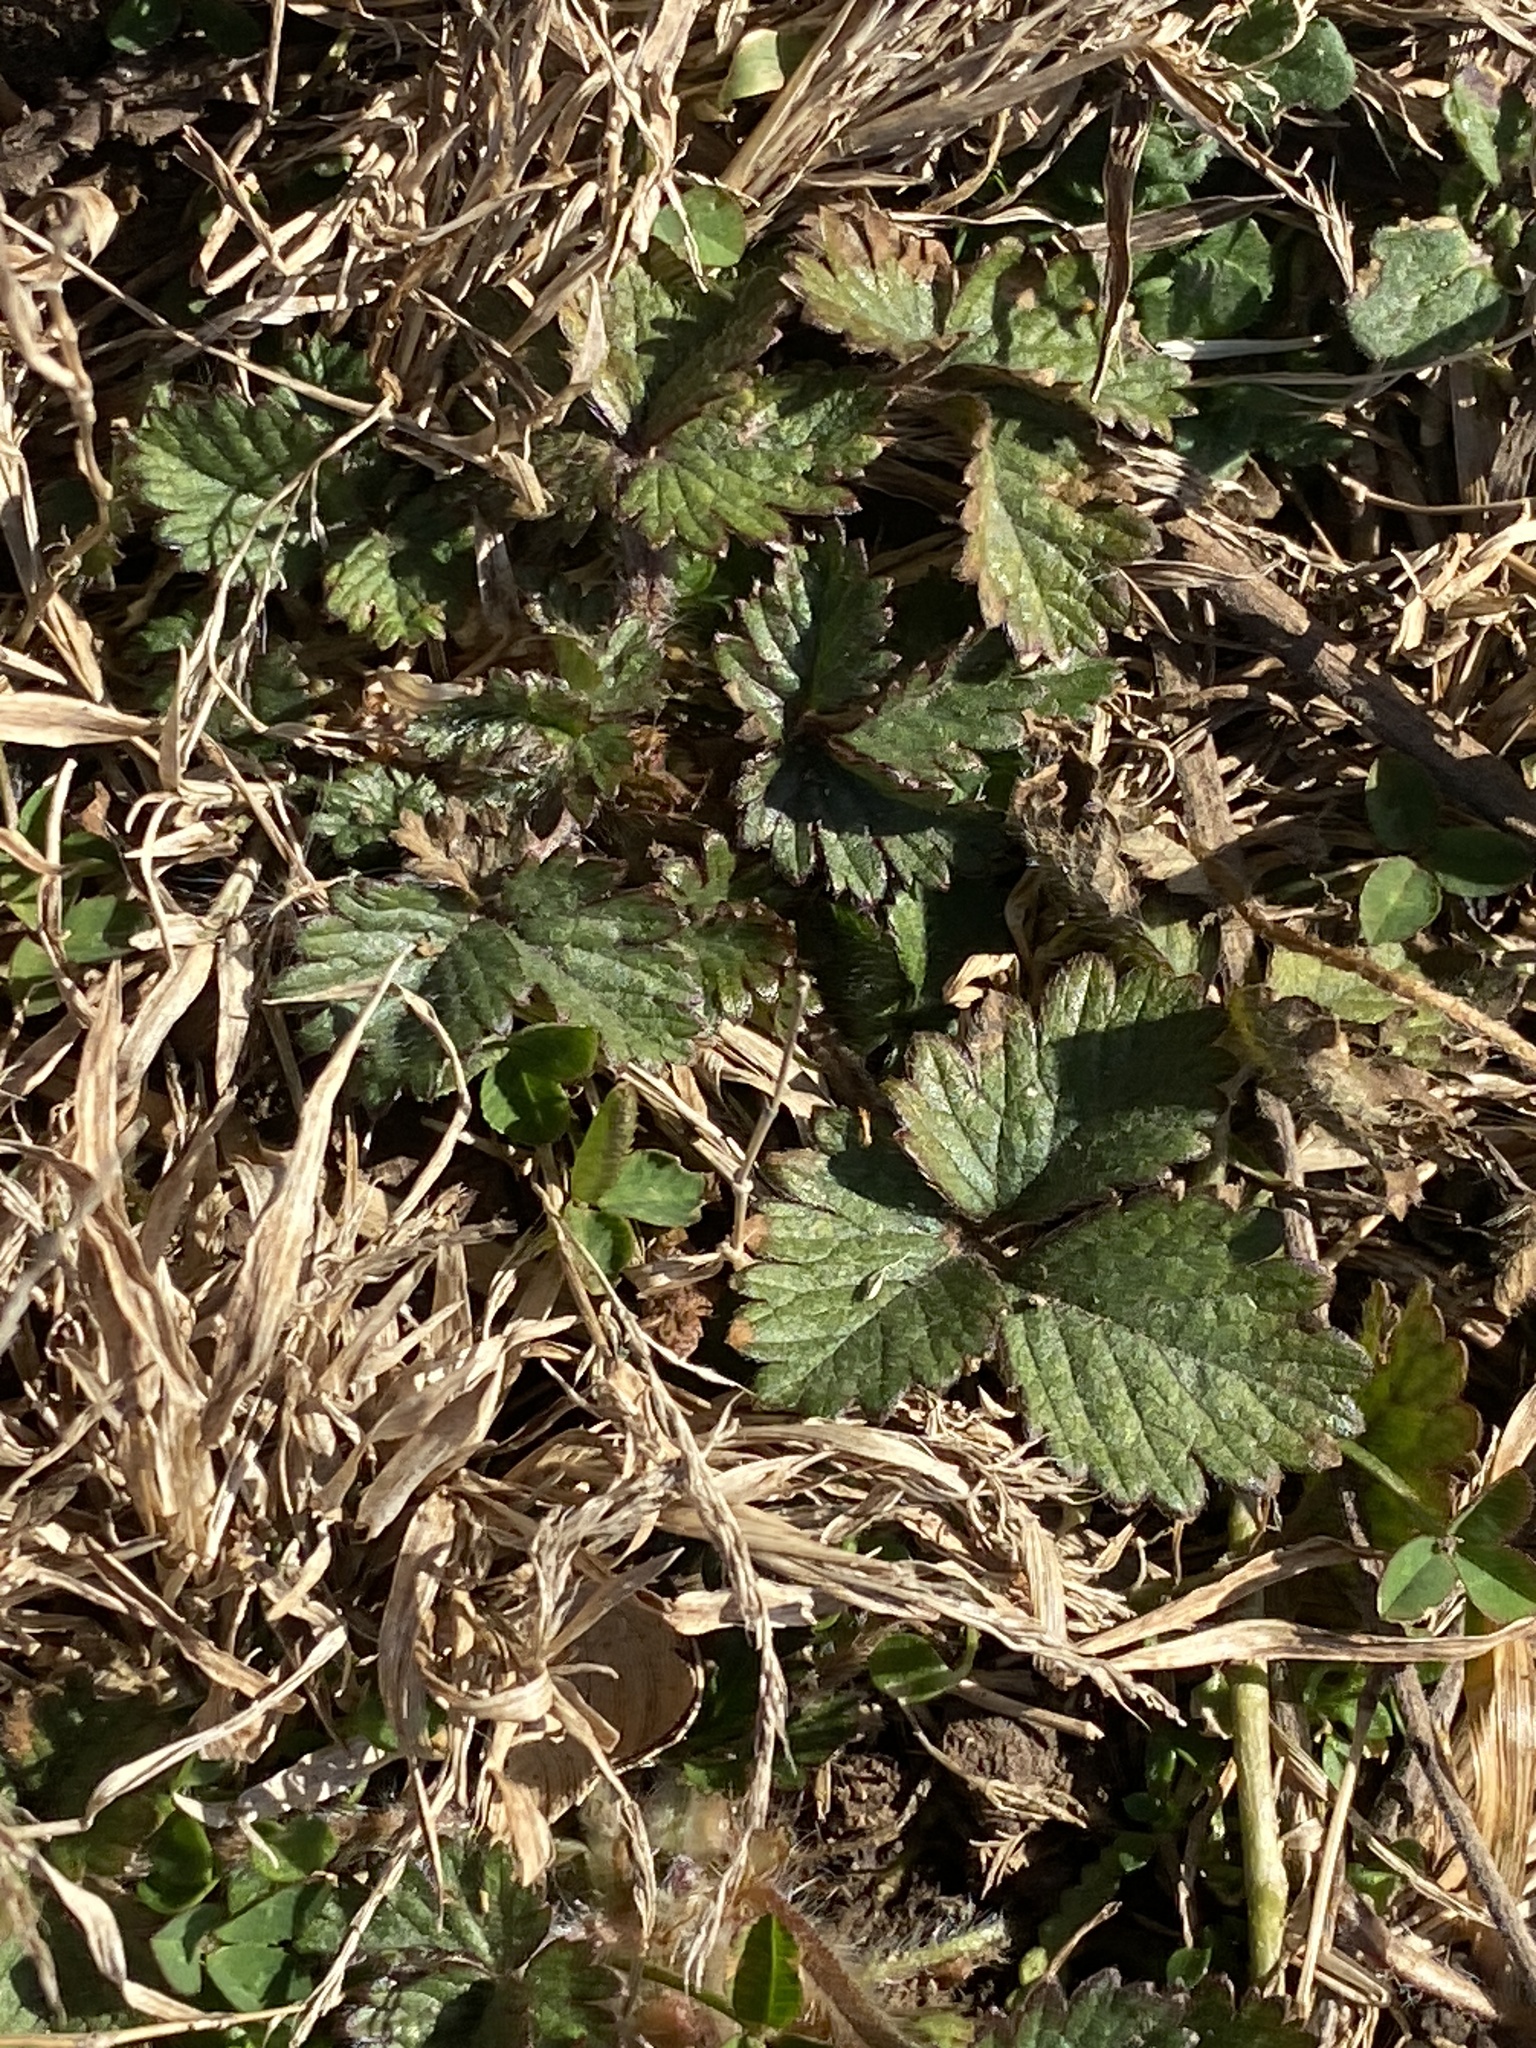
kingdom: Plantae
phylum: Tracheophyta
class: Magnoliopsida
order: Rosales
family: Rosaceae
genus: Potentilla
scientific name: Potentilla indica
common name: Yellow-flowered strawberry
